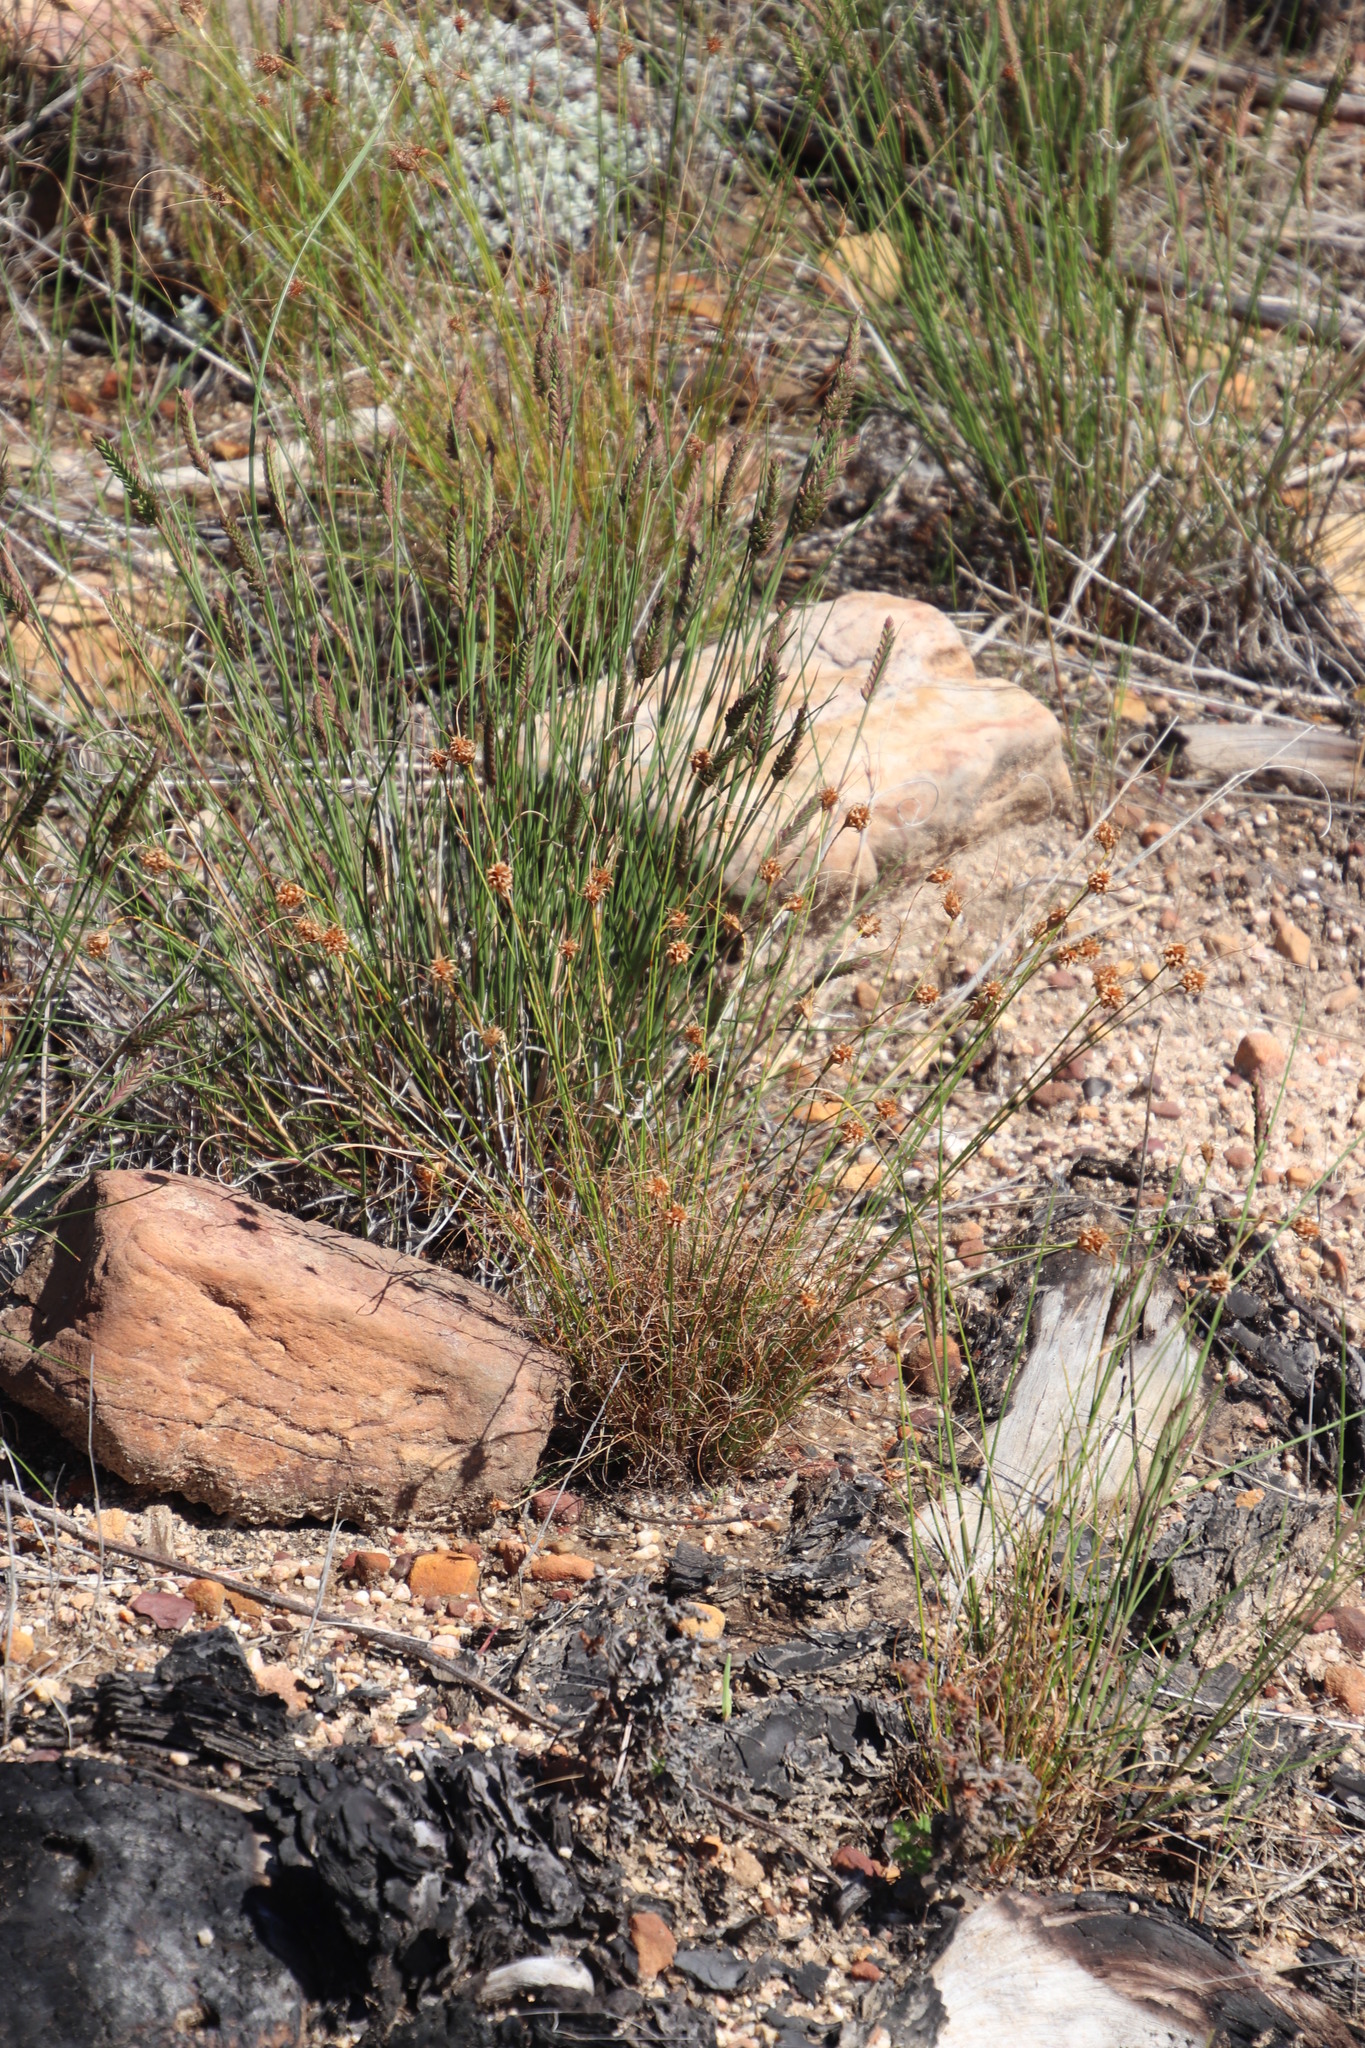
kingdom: Plantae
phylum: Tracheophyta
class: Liliopsida
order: Poales
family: Cyperaceae
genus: Ficinia
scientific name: Ficinia nigrescens
